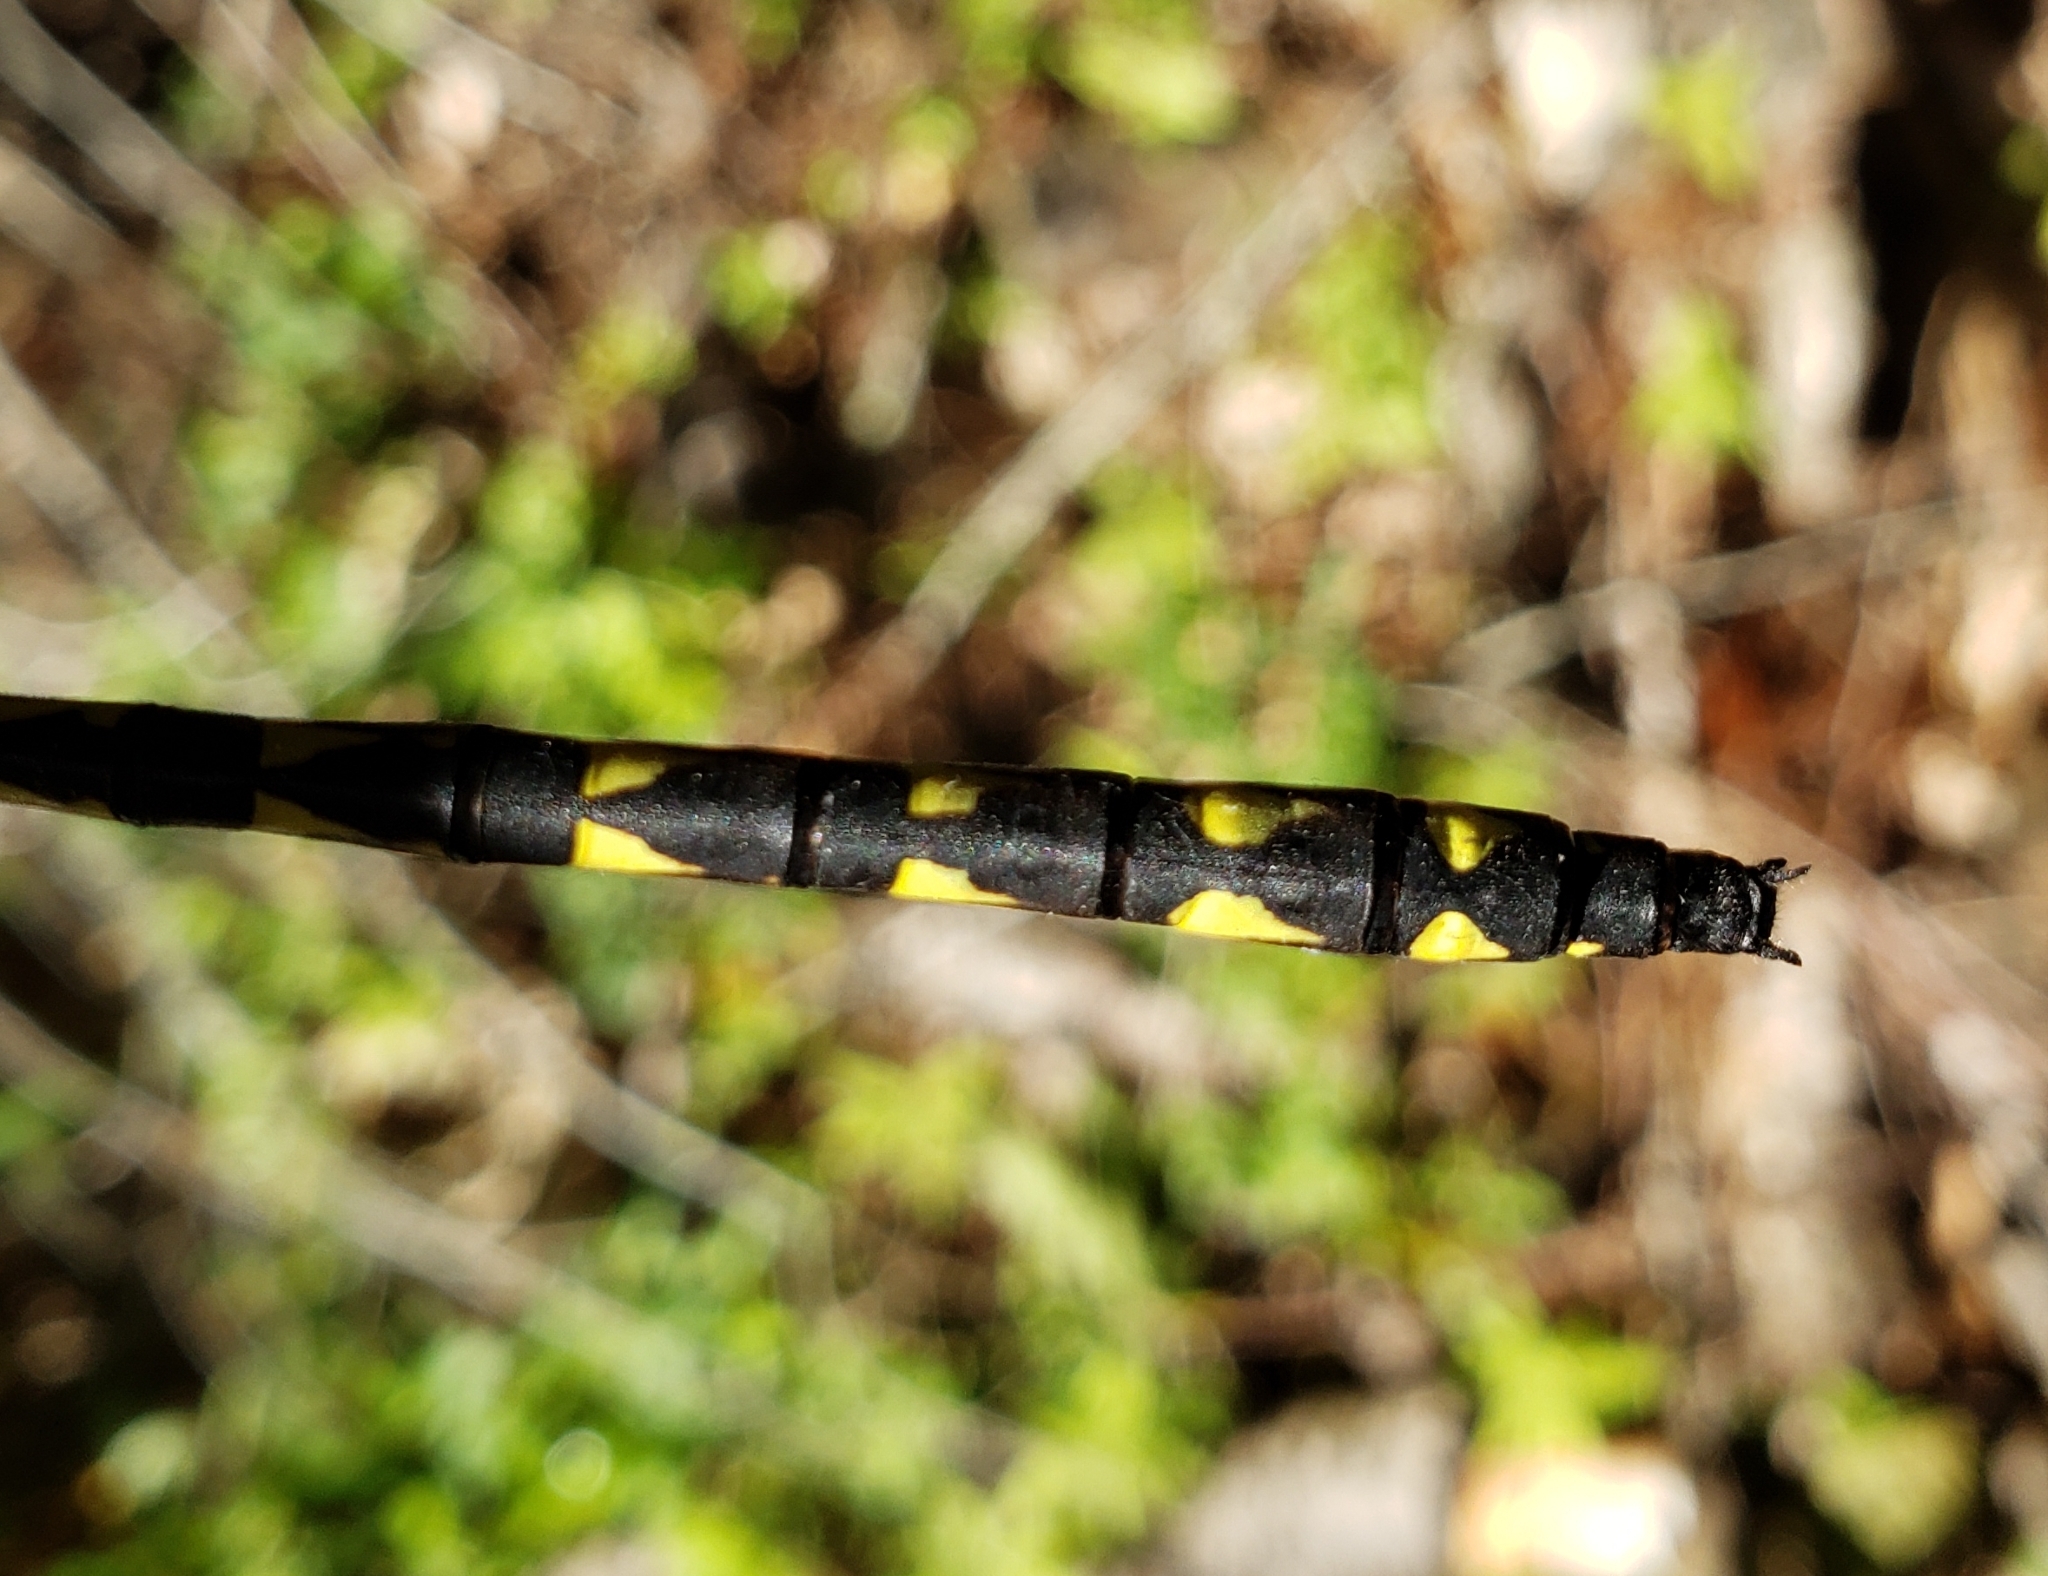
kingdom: Animalia
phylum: Arthropoda
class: Insecta
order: Odonata
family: Cordulegastridae
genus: Cordulegaster
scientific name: Cordulegaster diastatops
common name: Delta-spotted spiketail
